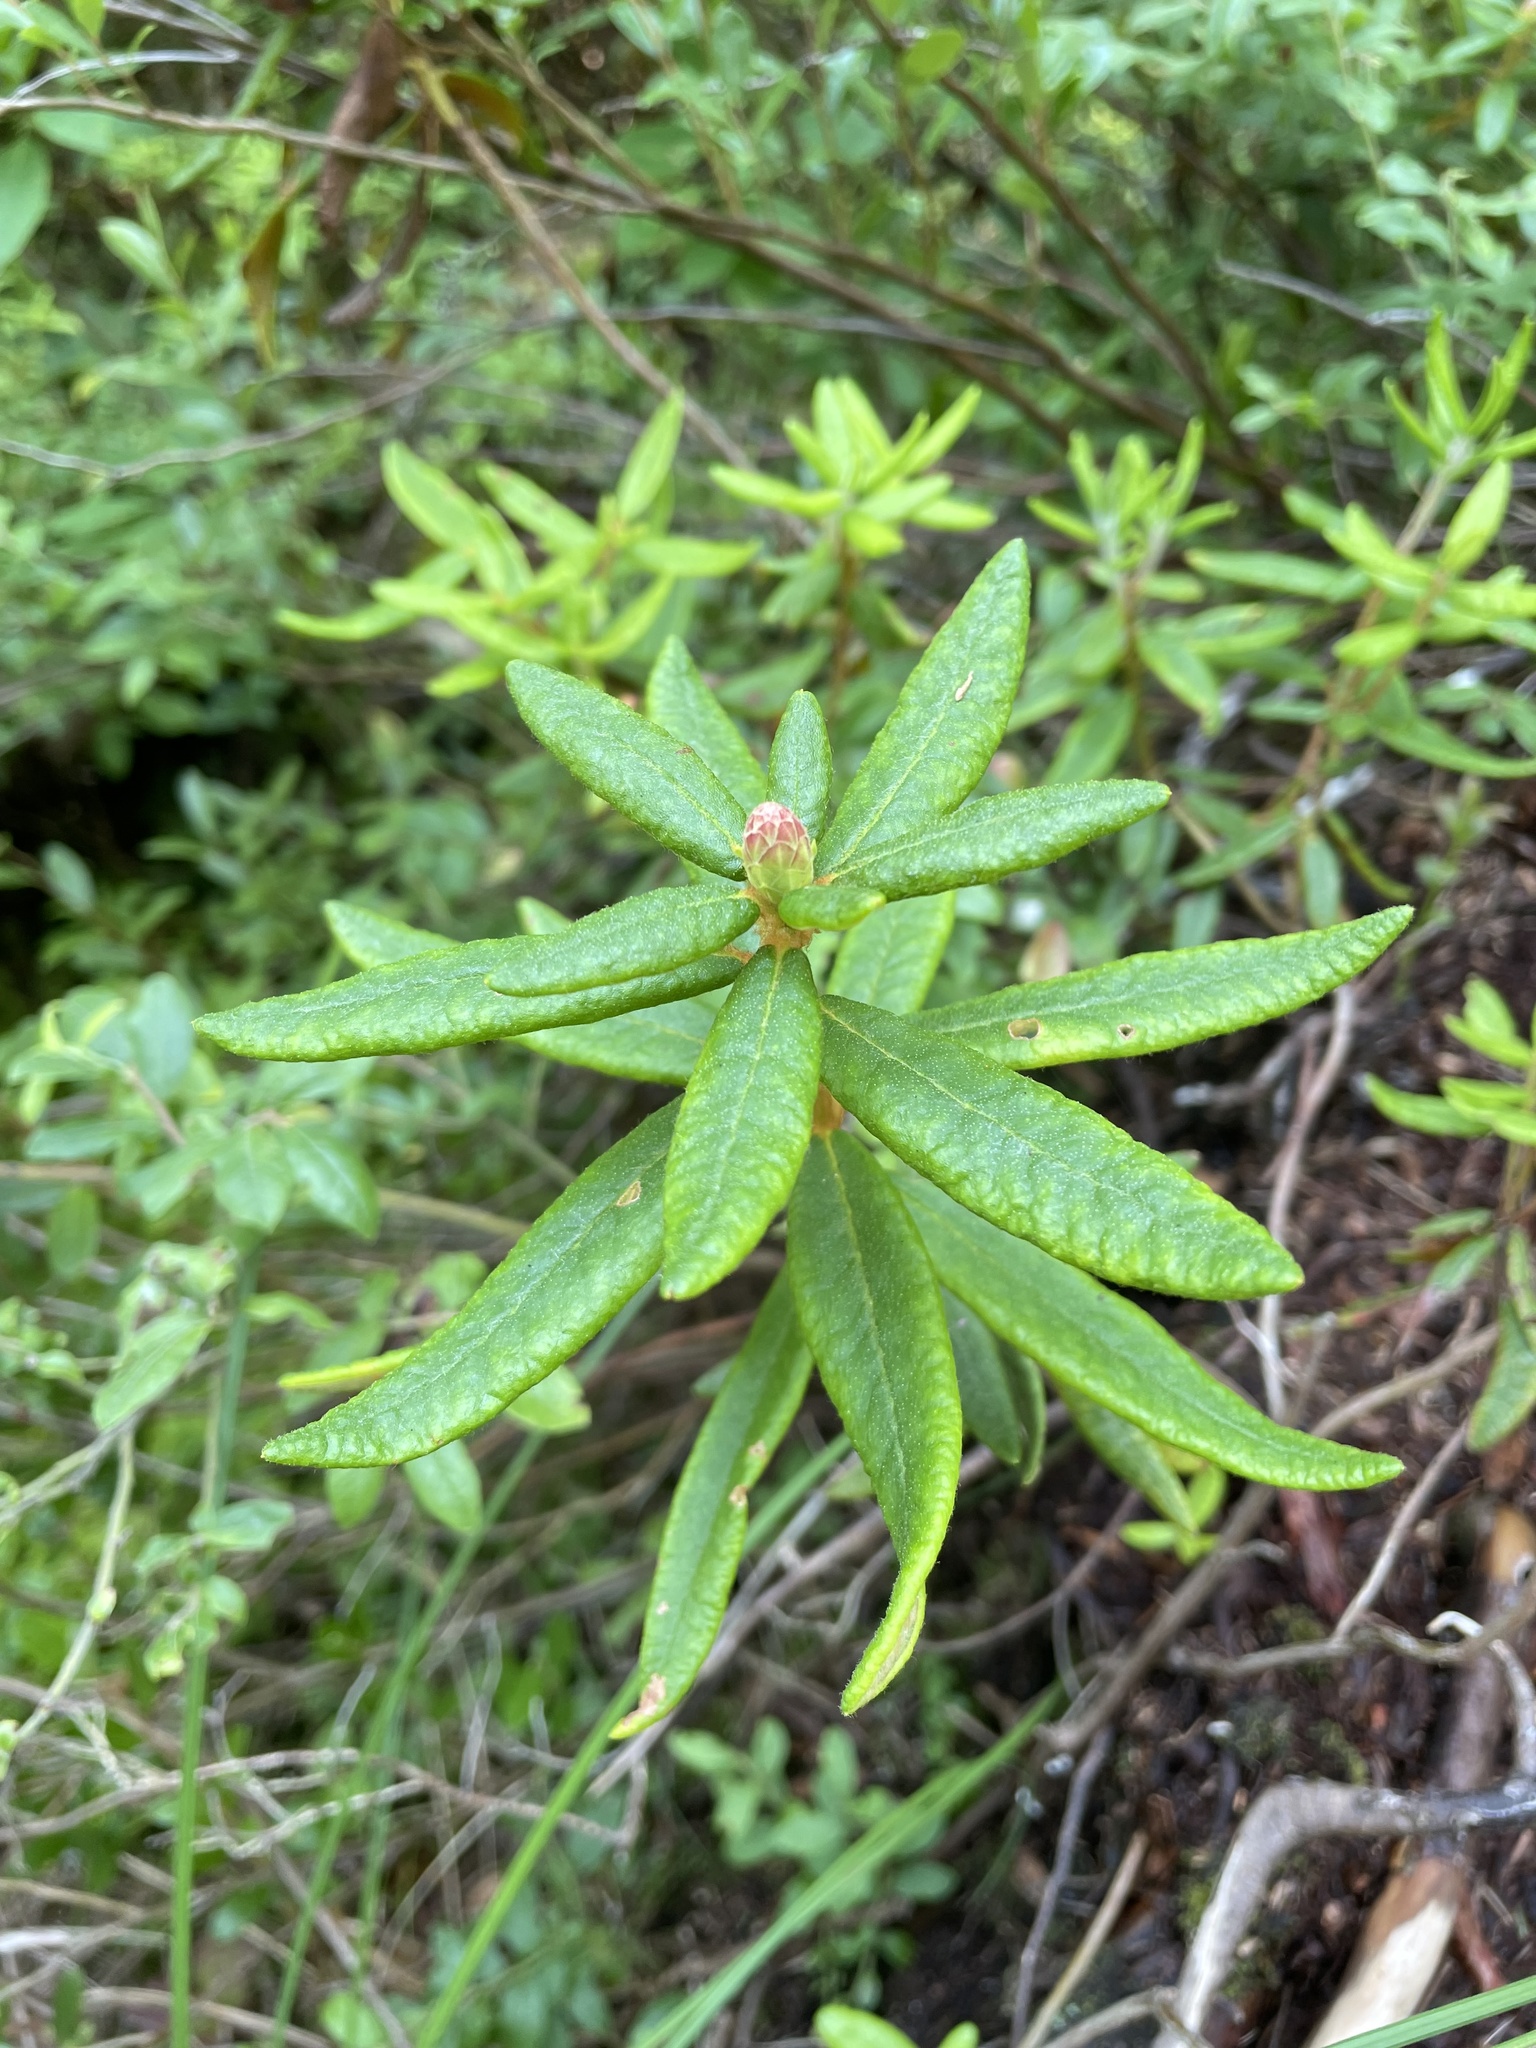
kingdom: Plantae
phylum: Tracheophyta
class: Magnoliopsida
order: Ericales
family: Ericaceae
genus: Rhododendron
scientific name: Rhododendron groenlandicum
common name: Bog labrador tea
